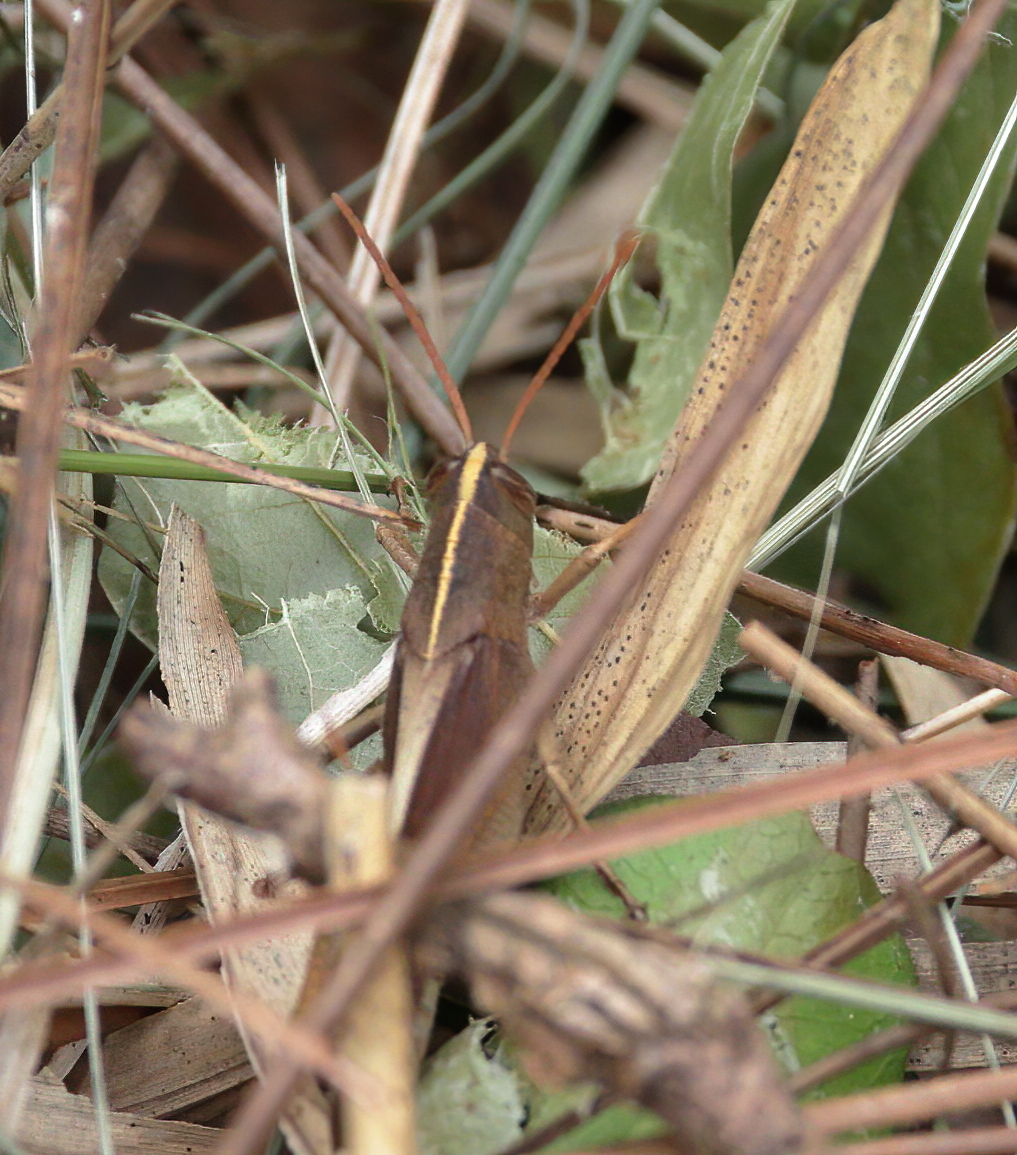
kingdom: Animalia
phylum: Arthropoda
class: Insecta
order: Orthoptera
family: Acrididae
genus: Schistocerca
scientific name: Schistocerca damnifica
